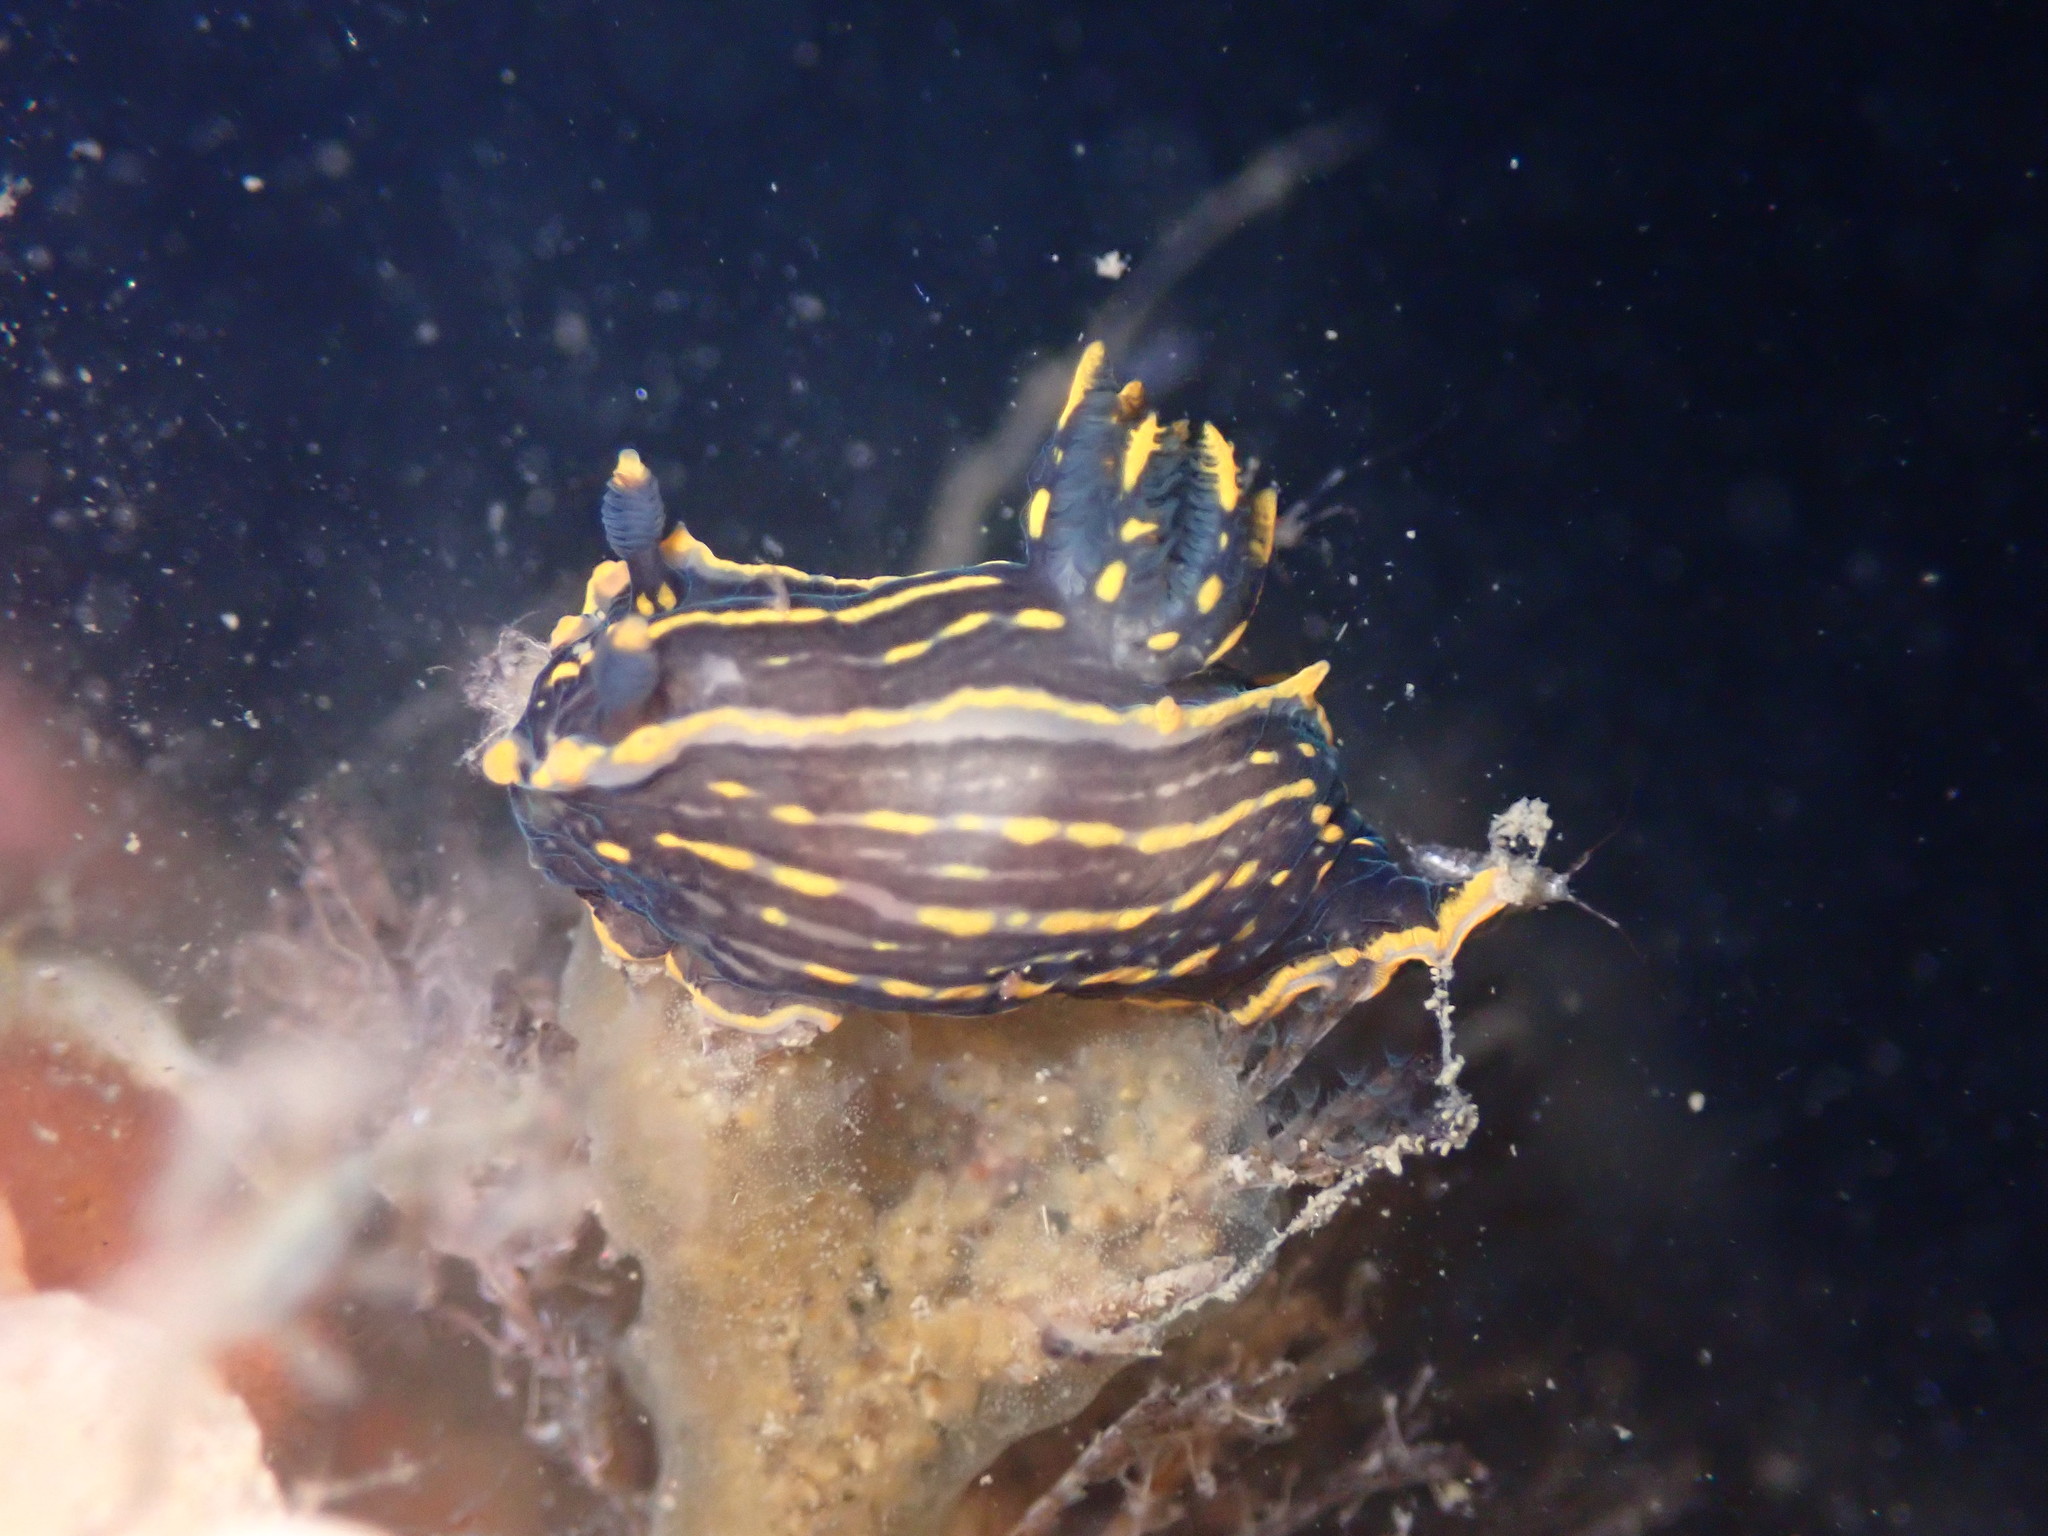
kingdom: Animalia
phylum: Mollusca
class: Gastropoda
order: Nudibranchia
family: Polyceridae
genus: Polycera
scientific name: Polycera atra
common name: Orange-spike polycera
